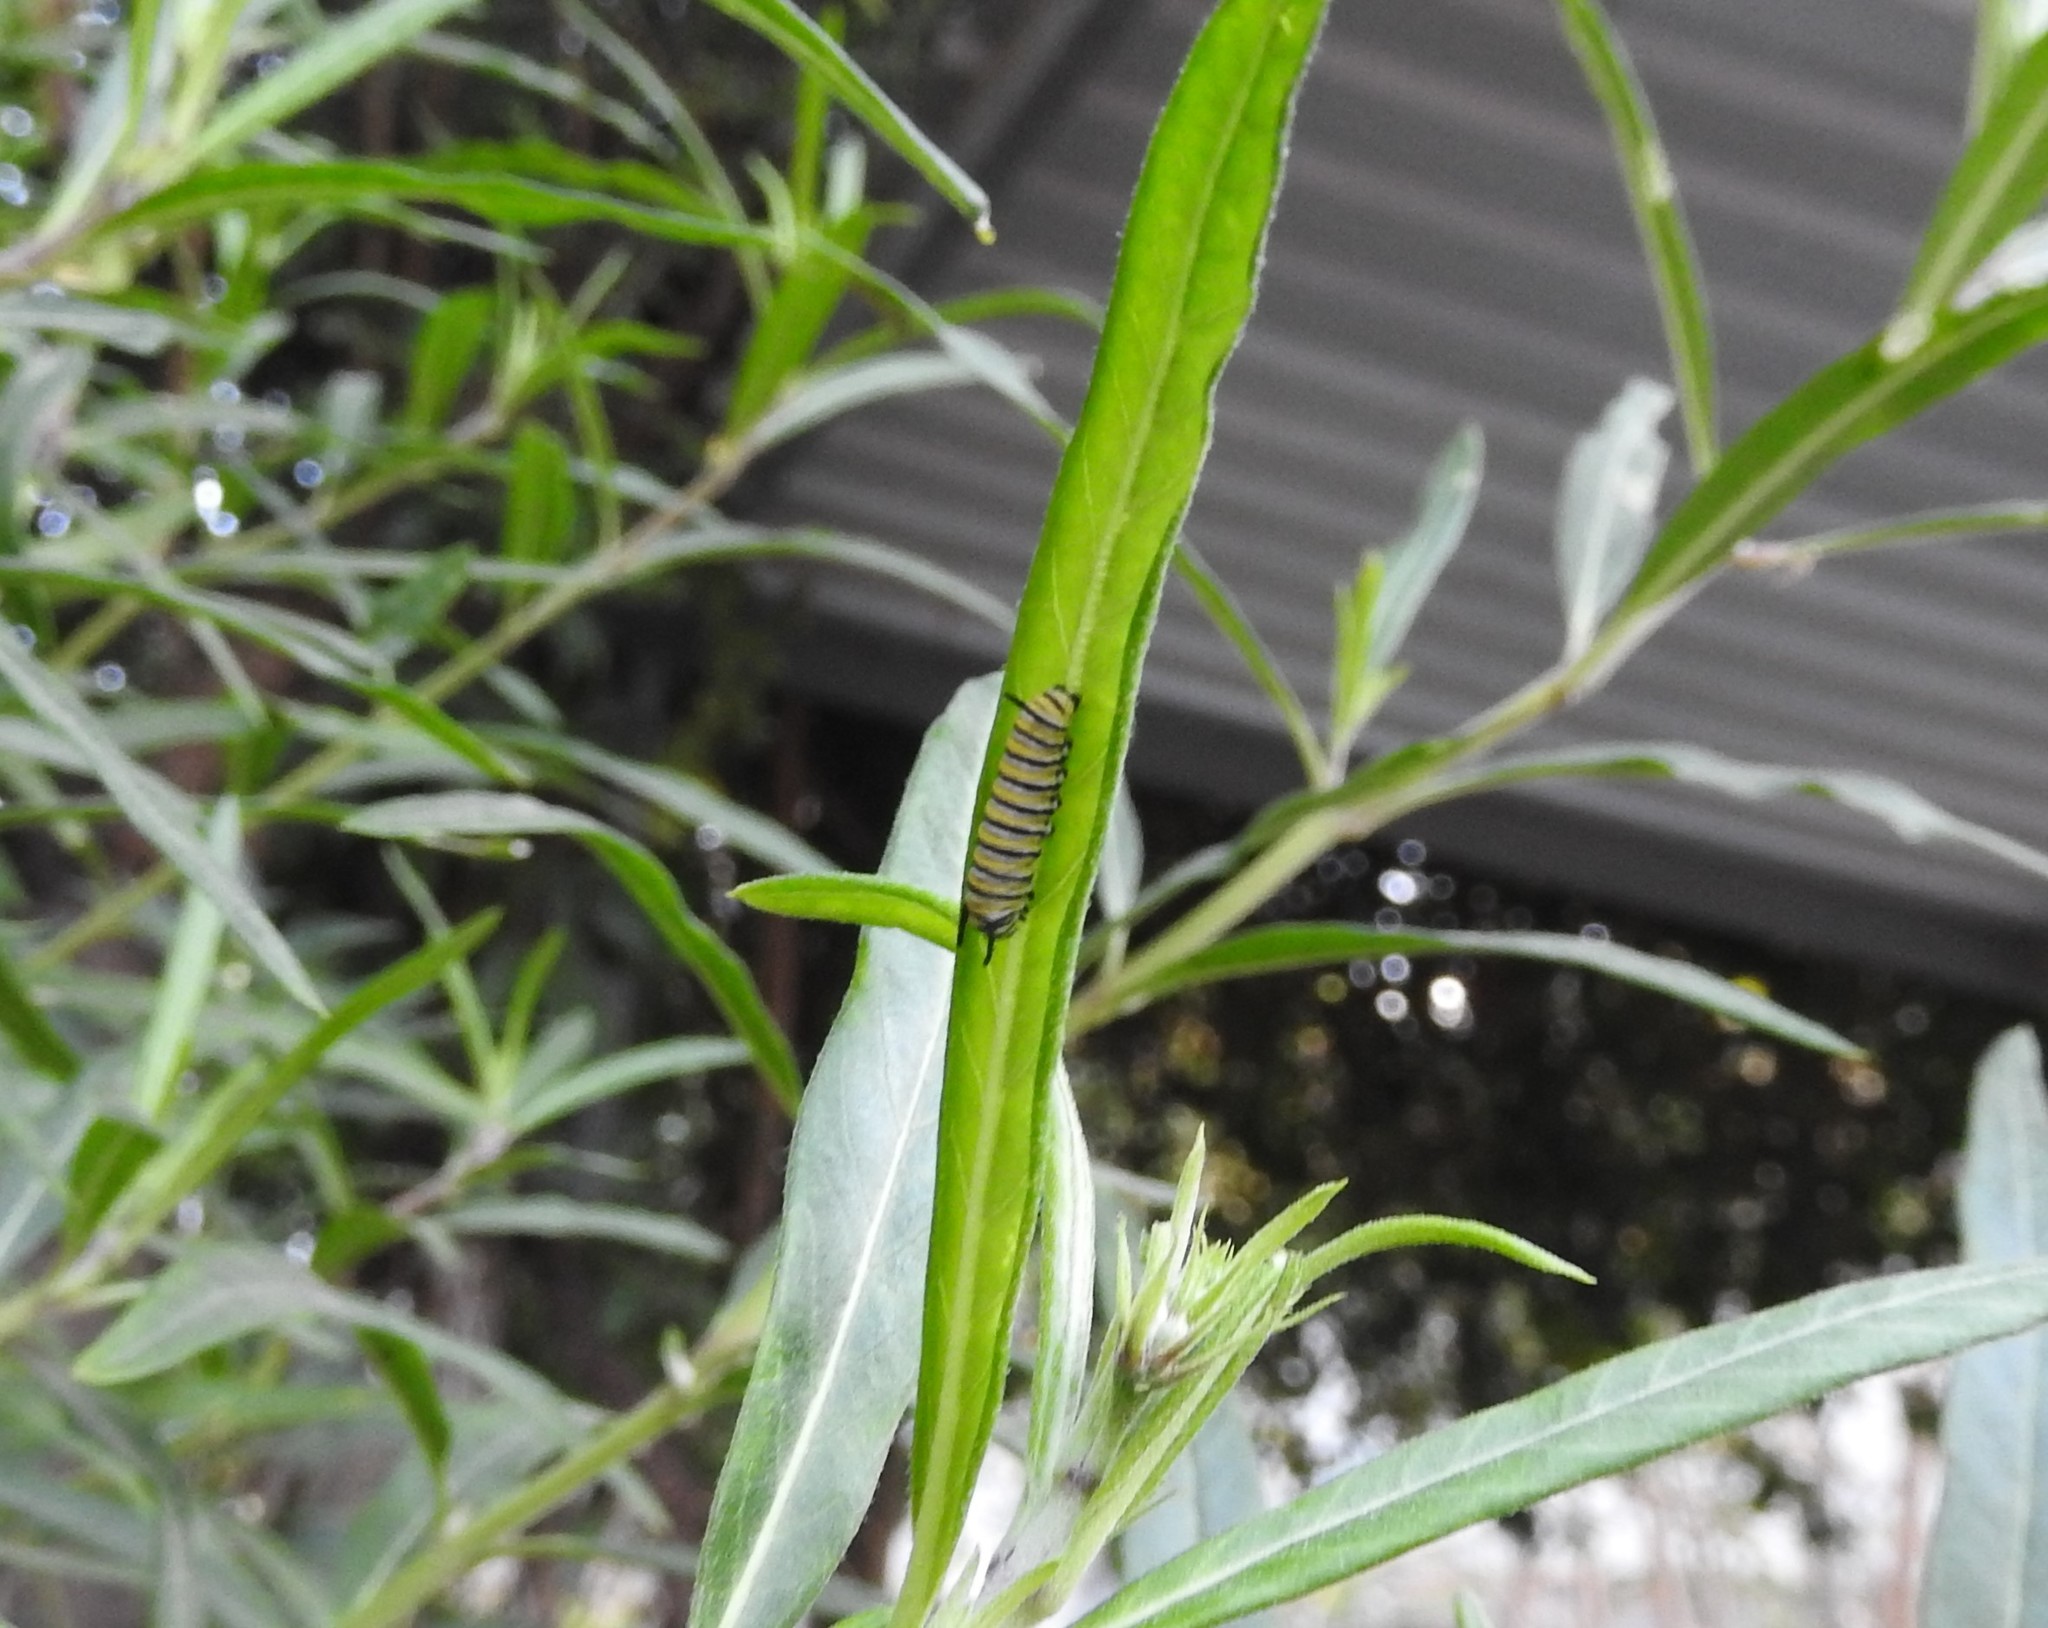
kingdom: Animalia
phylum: Arthropoda
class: Insecta
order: Lepidoptera
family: Nymphalidae
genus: Danaus
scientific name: Danaus plexippus
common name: Monarch
